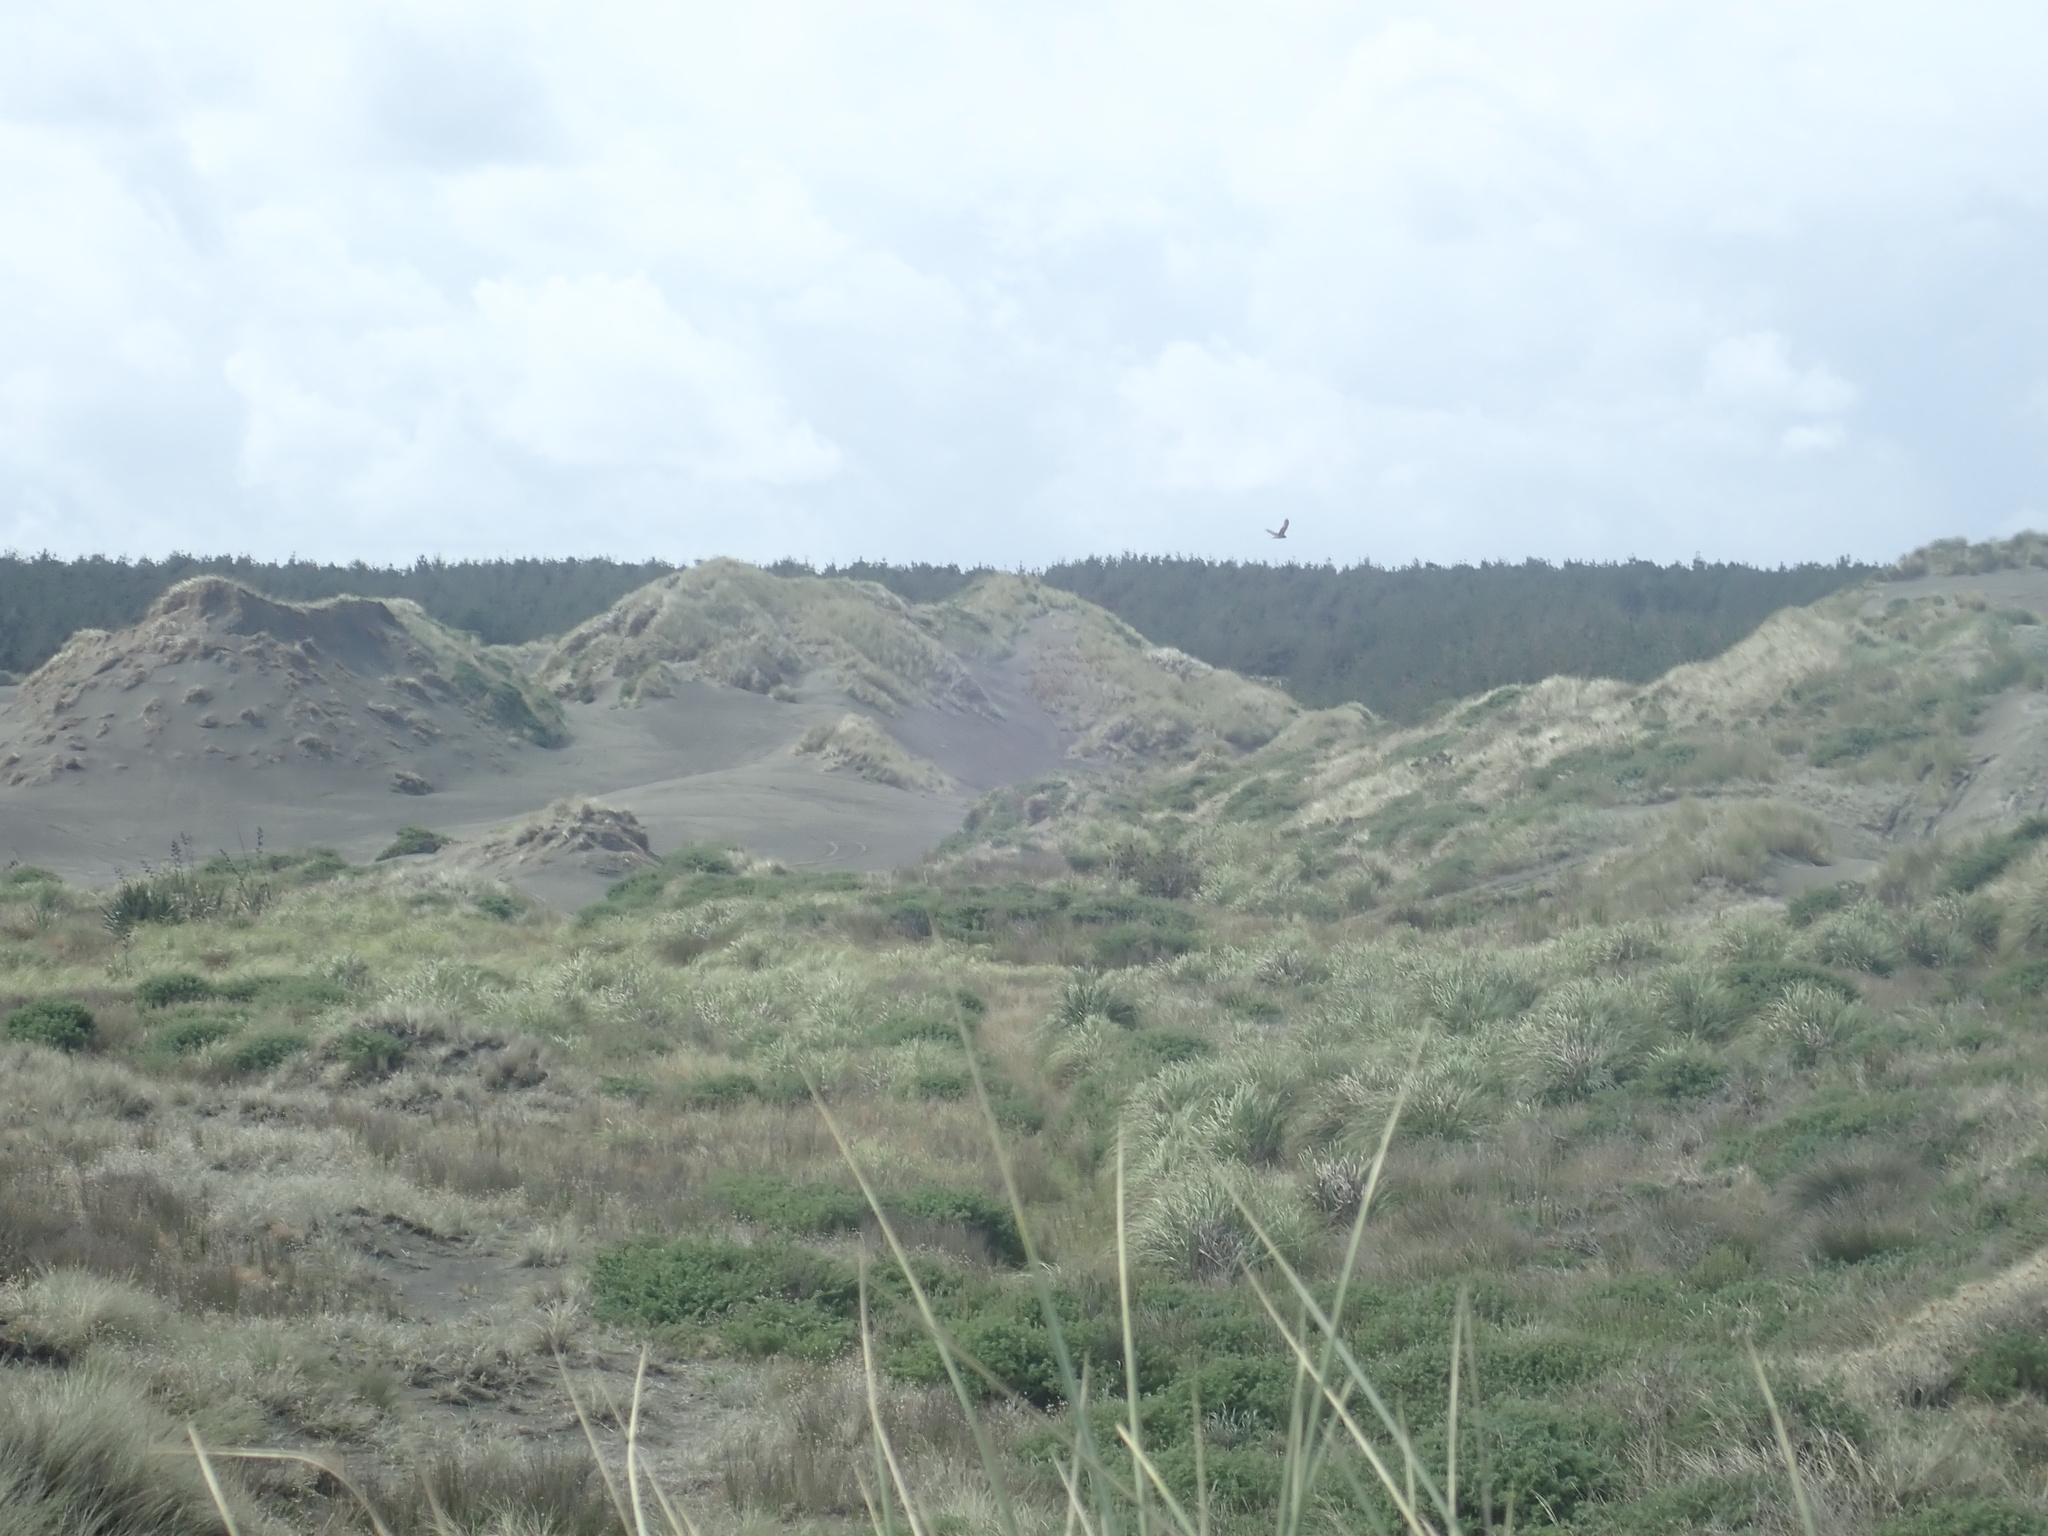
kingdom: Animalia
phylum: Chordata
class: Aves
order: Accipitriformes
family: Accipitridae
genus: Circus
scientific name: Circus approximans
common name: Swamp harrier
